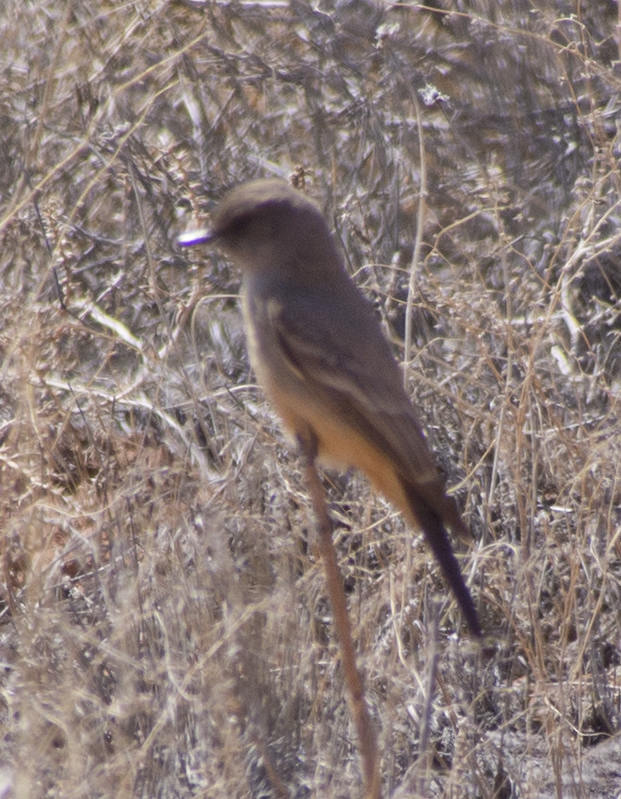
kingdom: Animalia
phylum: Chordata
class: Aves
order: Passeriformes
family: Tyrannidae
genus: Sayornis
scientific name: Sayornis saya
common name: Say's phoebe
